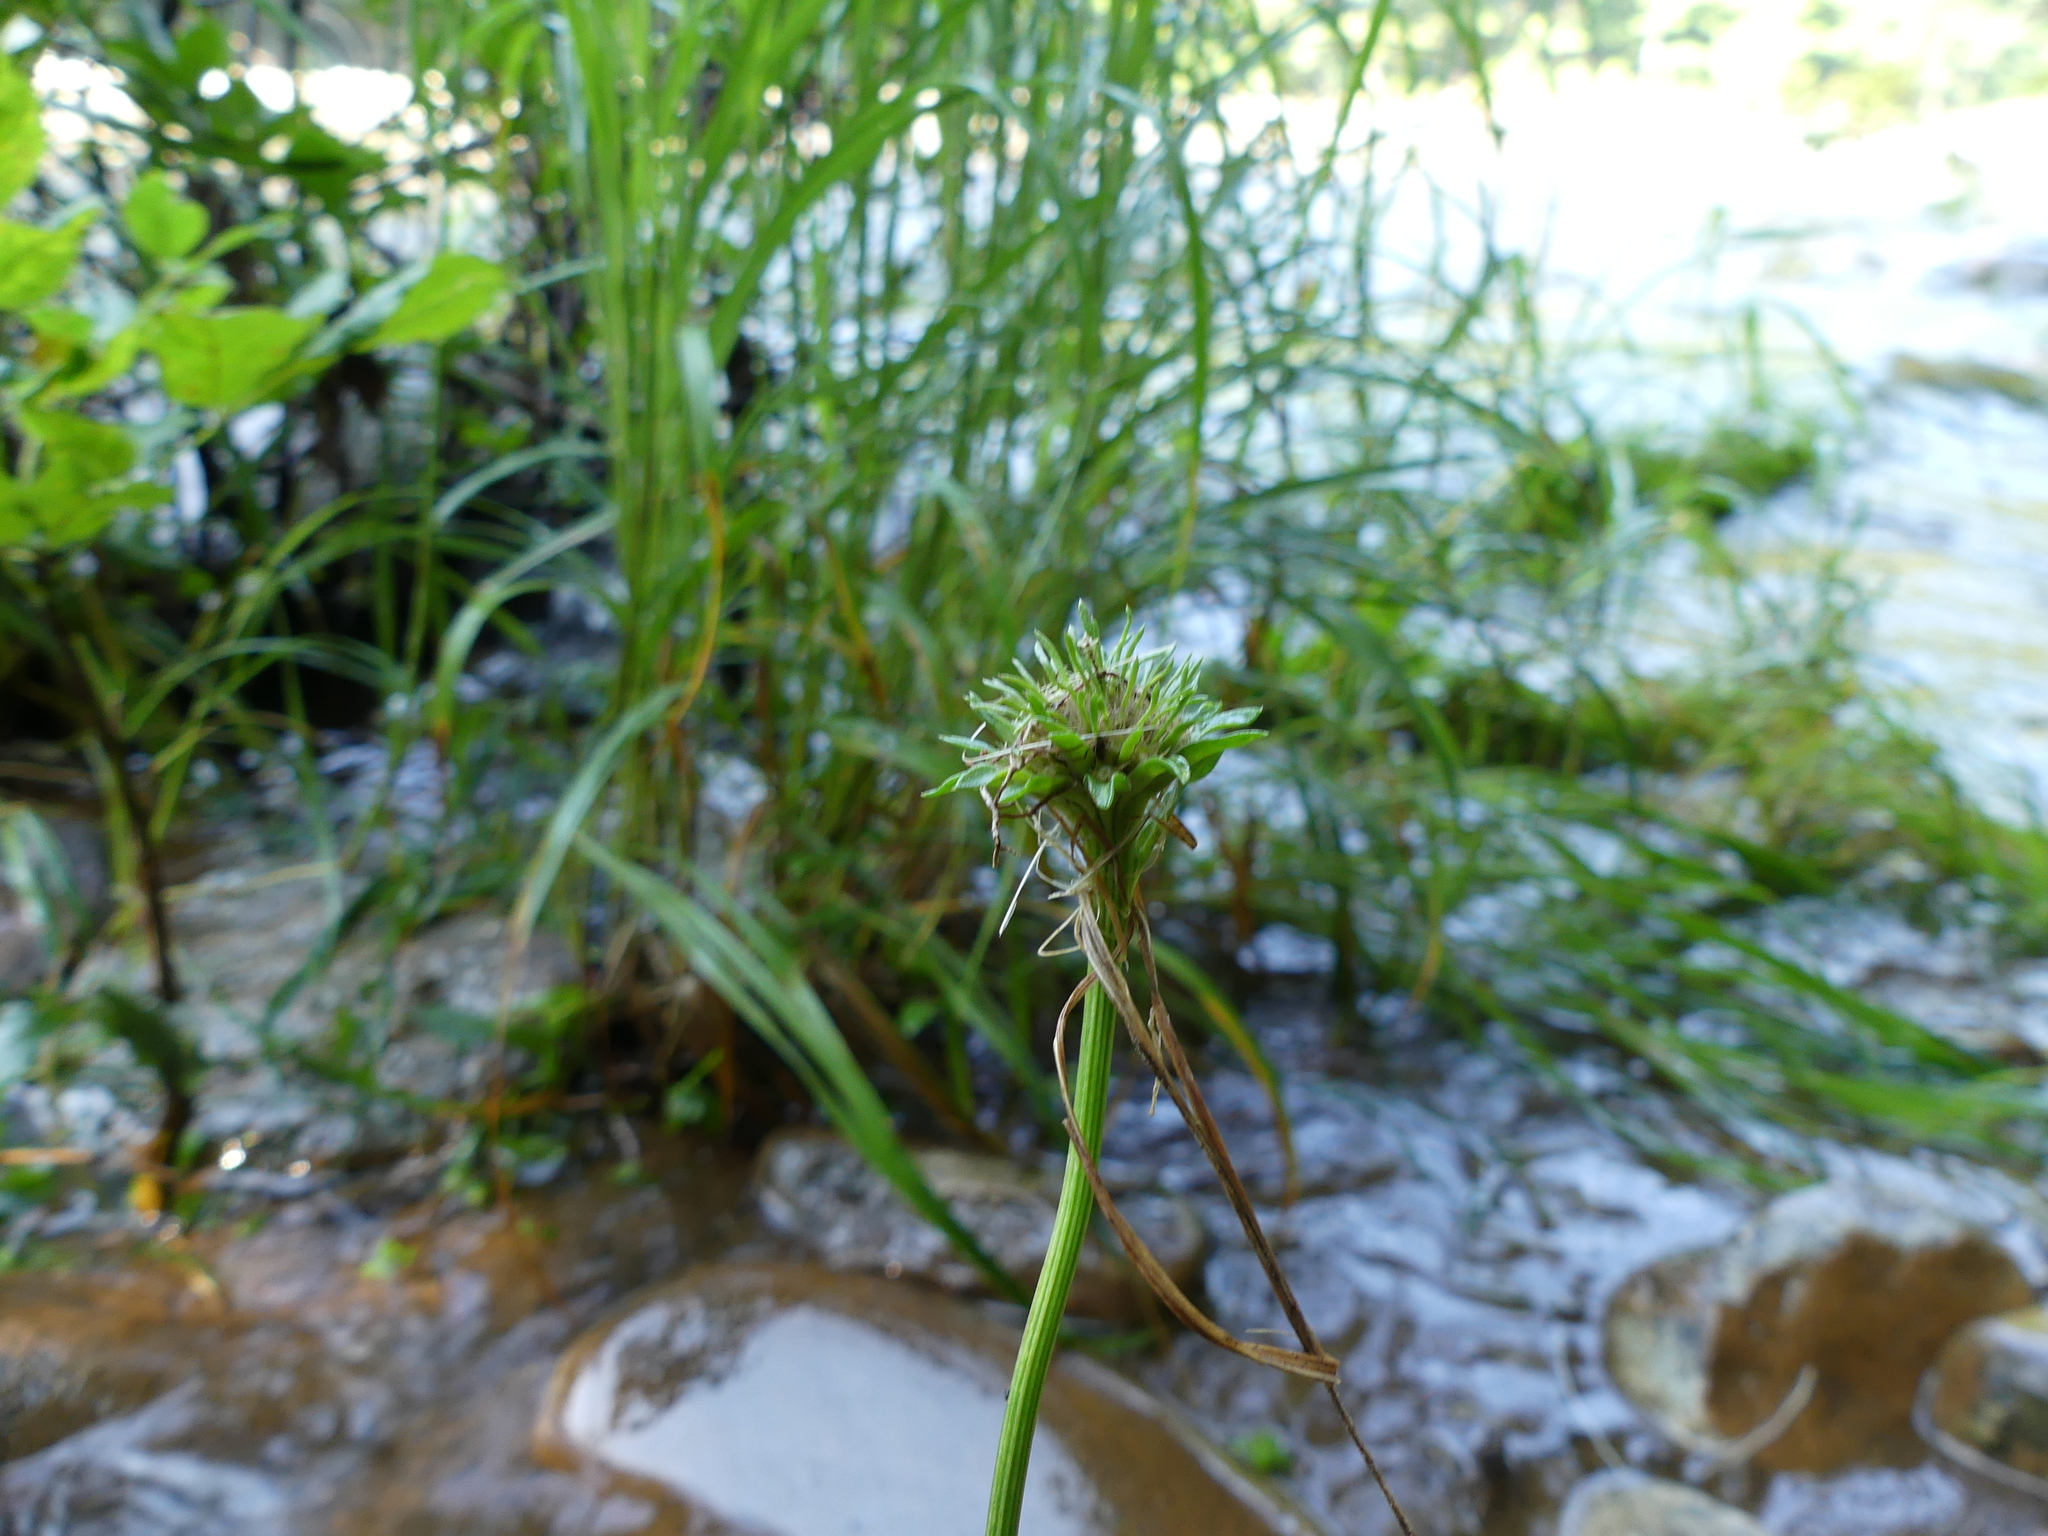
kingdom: Plantae
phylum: Tracheophyta
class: Magnoliopsida
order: Asterales
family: Asteraceae
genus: Marshallia
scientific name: Marshallia pulchra
